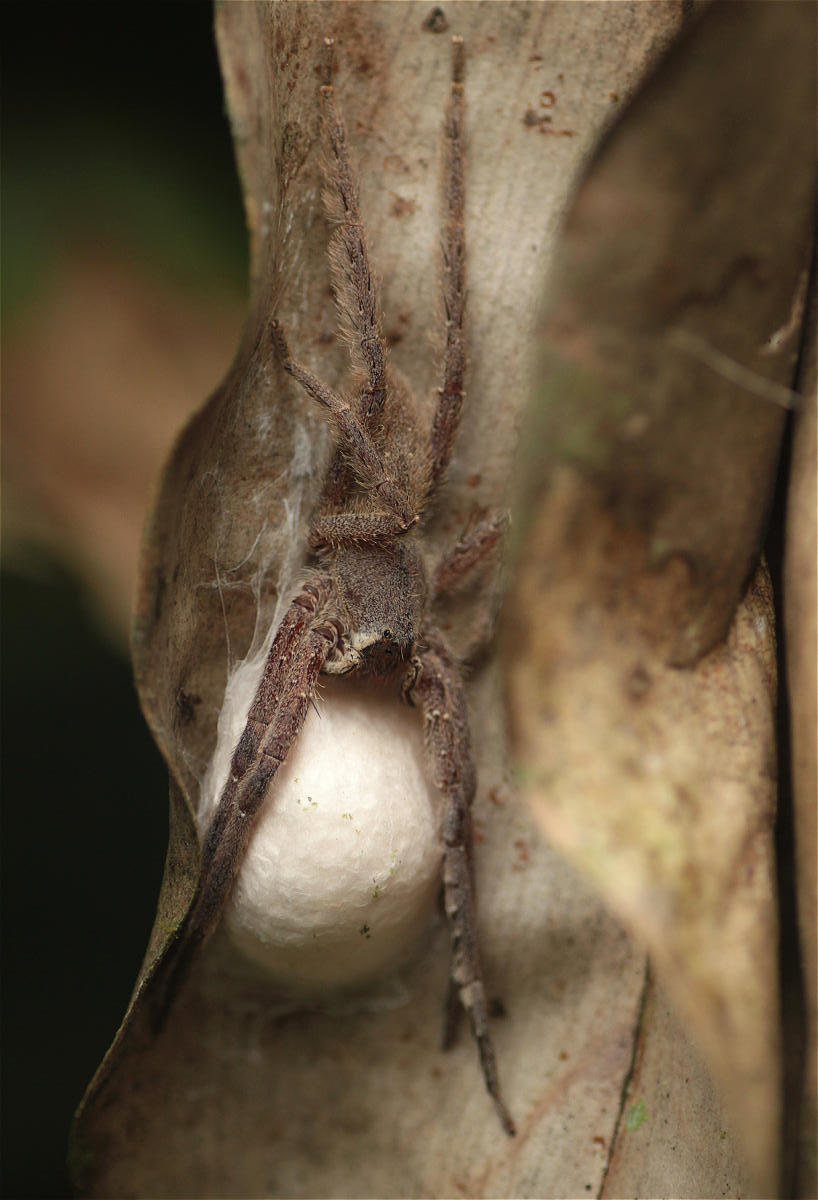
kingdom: Animalia
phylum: Arthropoda
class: Arachnida
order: Araneae
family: Ctenidae
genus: Phoneutria
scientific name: Phoneutria boliviensis
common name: Wandering spiders
